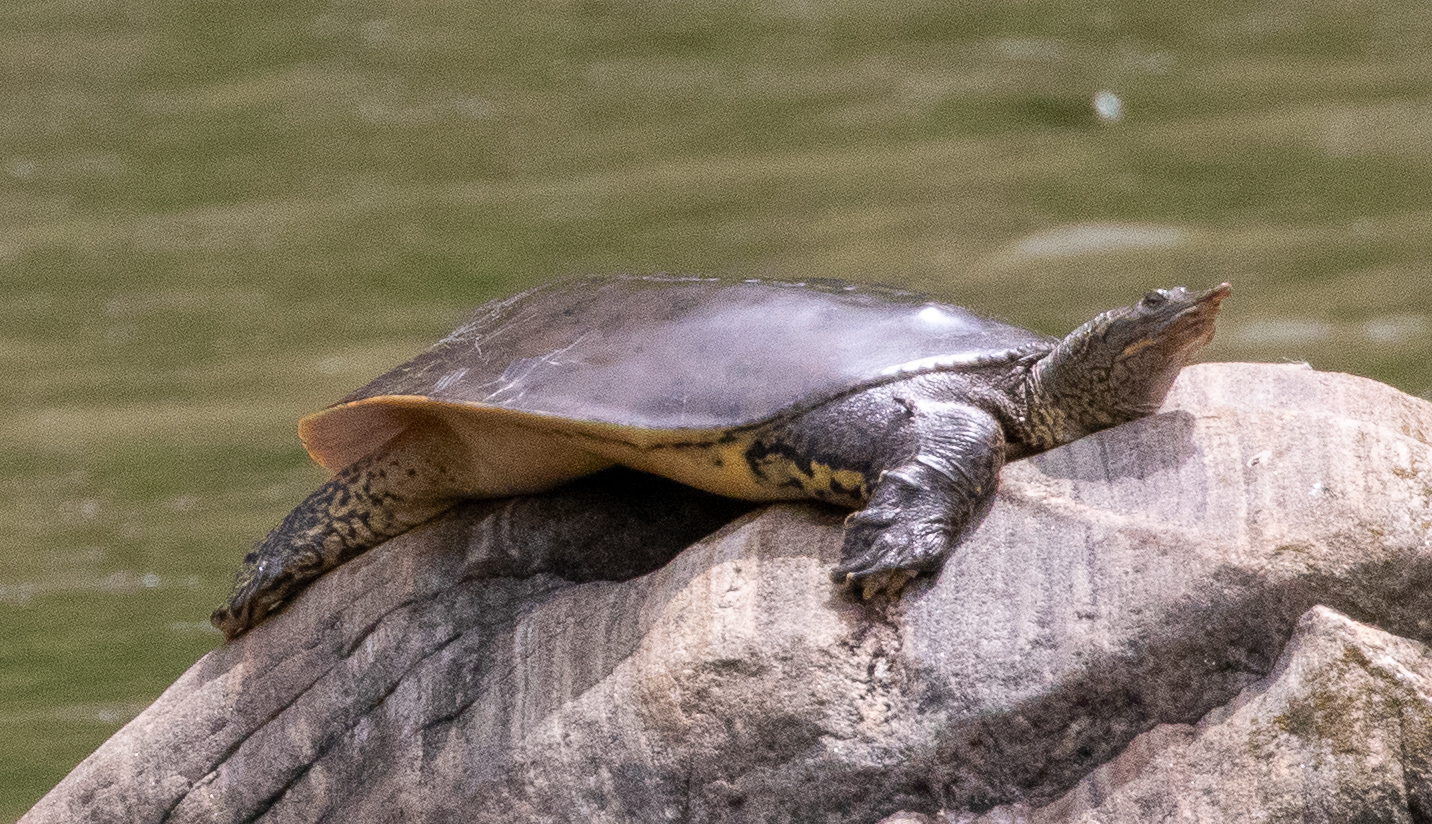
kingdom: Animalia
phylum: Chordata
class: Testudines
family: Trionychidae
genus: Apalone
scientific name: Apalone spinifera
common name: Spiny softshell turtle
